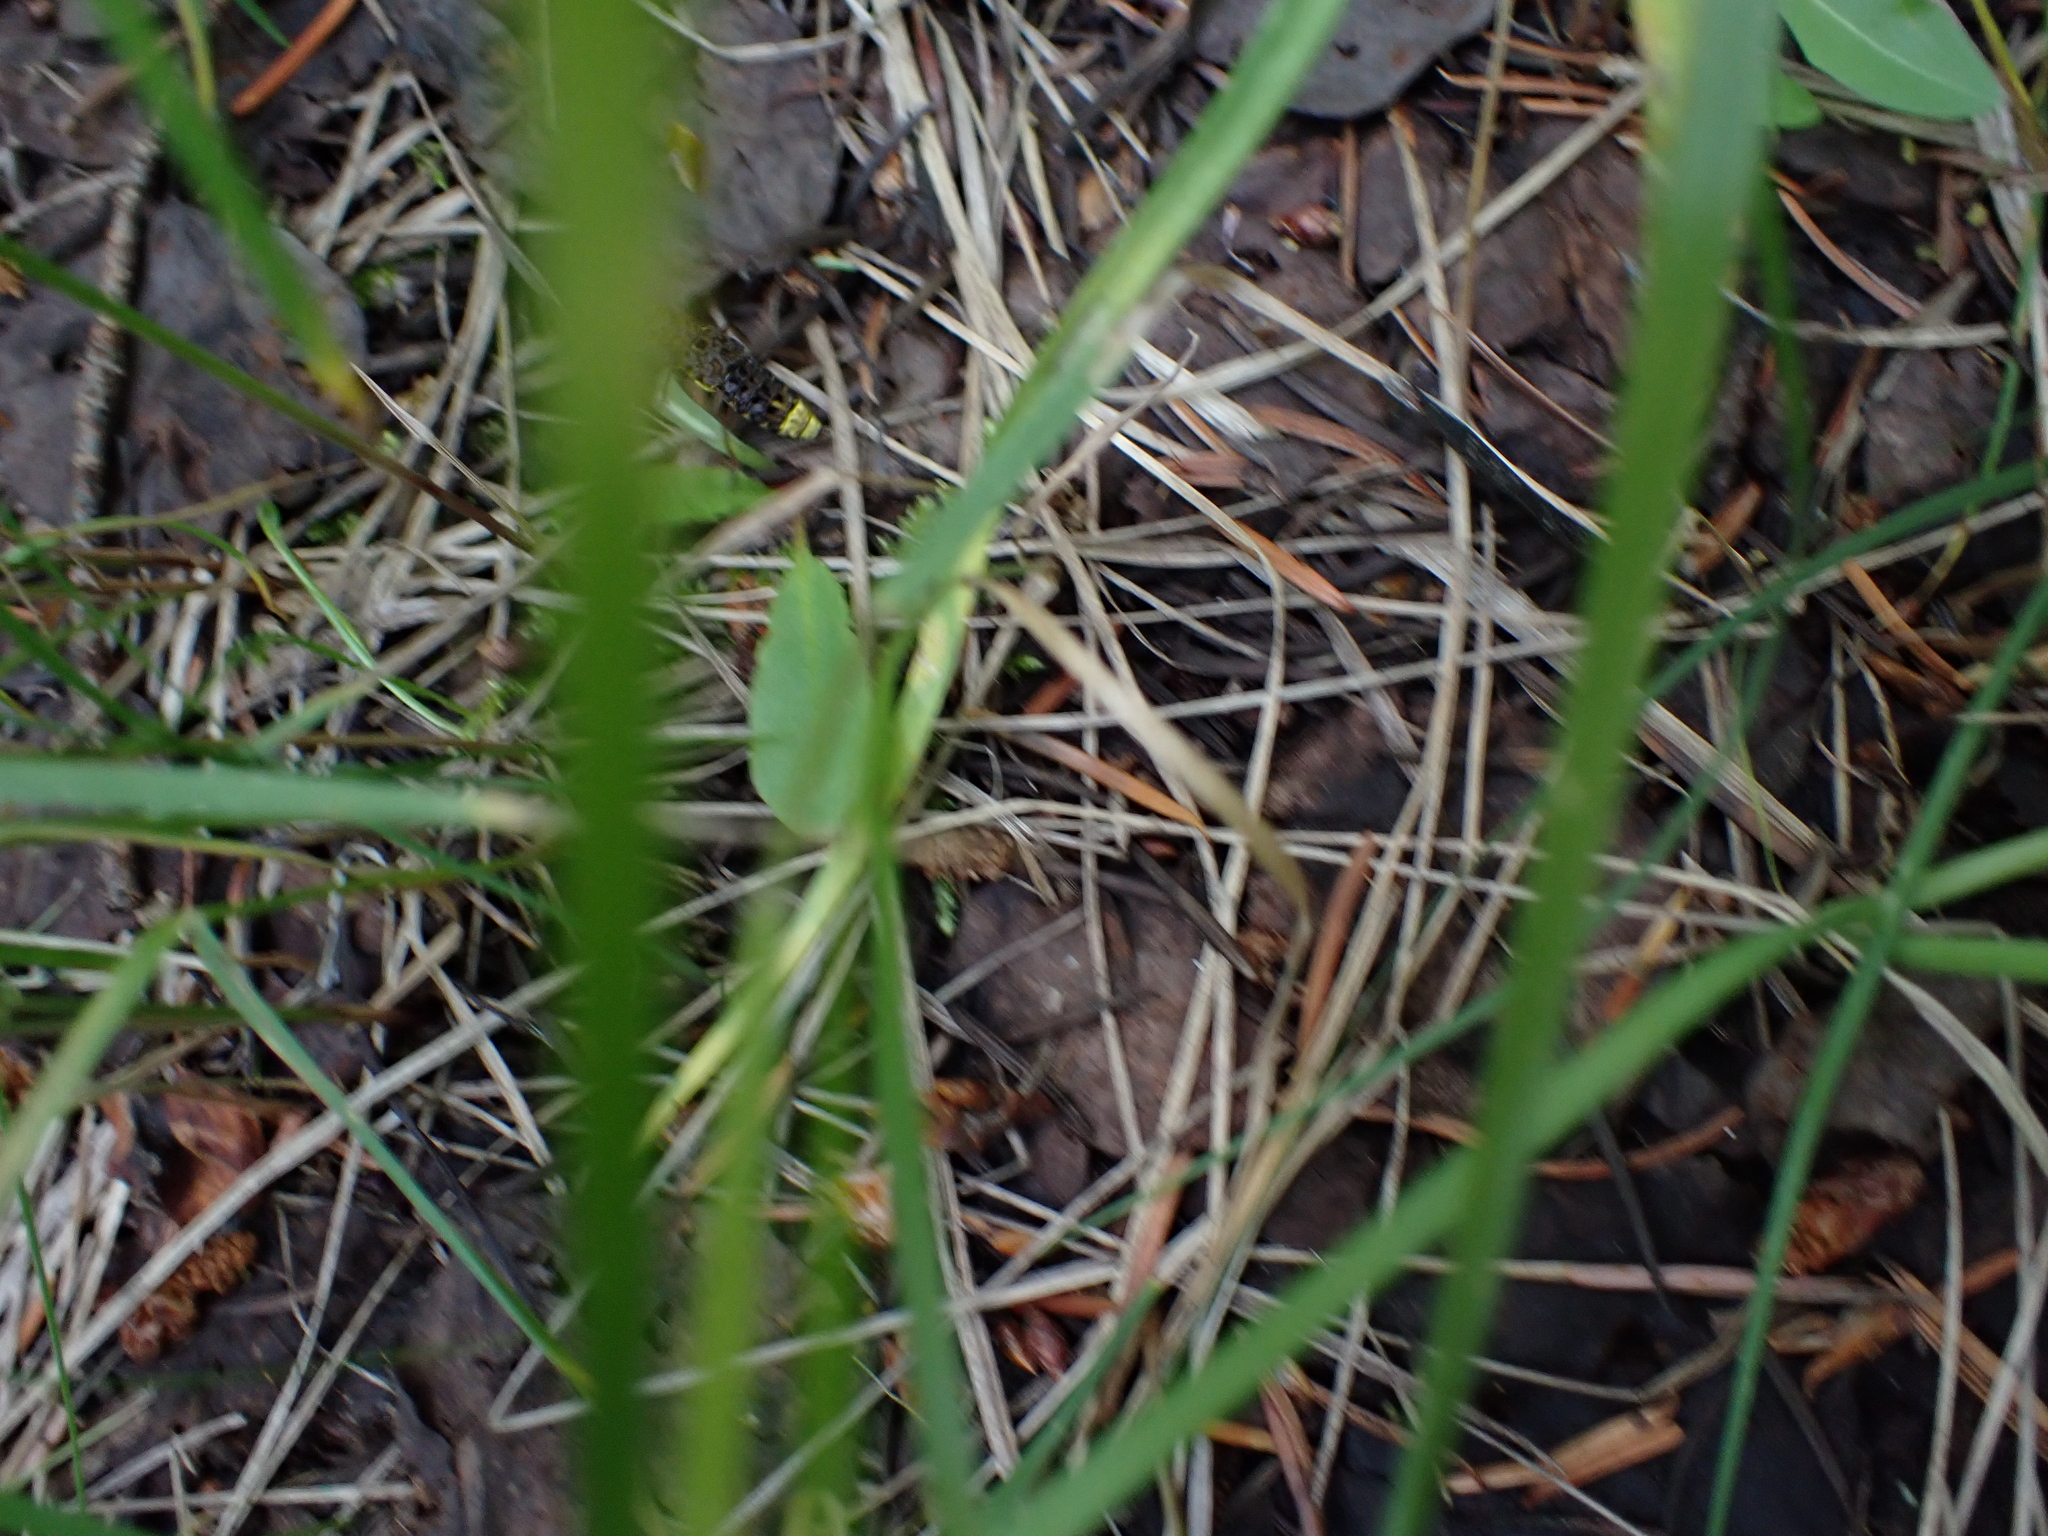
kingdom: Animalia
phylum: Arthropoda
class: Insecta
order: Coleoptera
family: Staphylinidae
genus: Ontholestes
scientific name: Ontholestes cingulatus
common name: Gold-and-brown rove beetle
